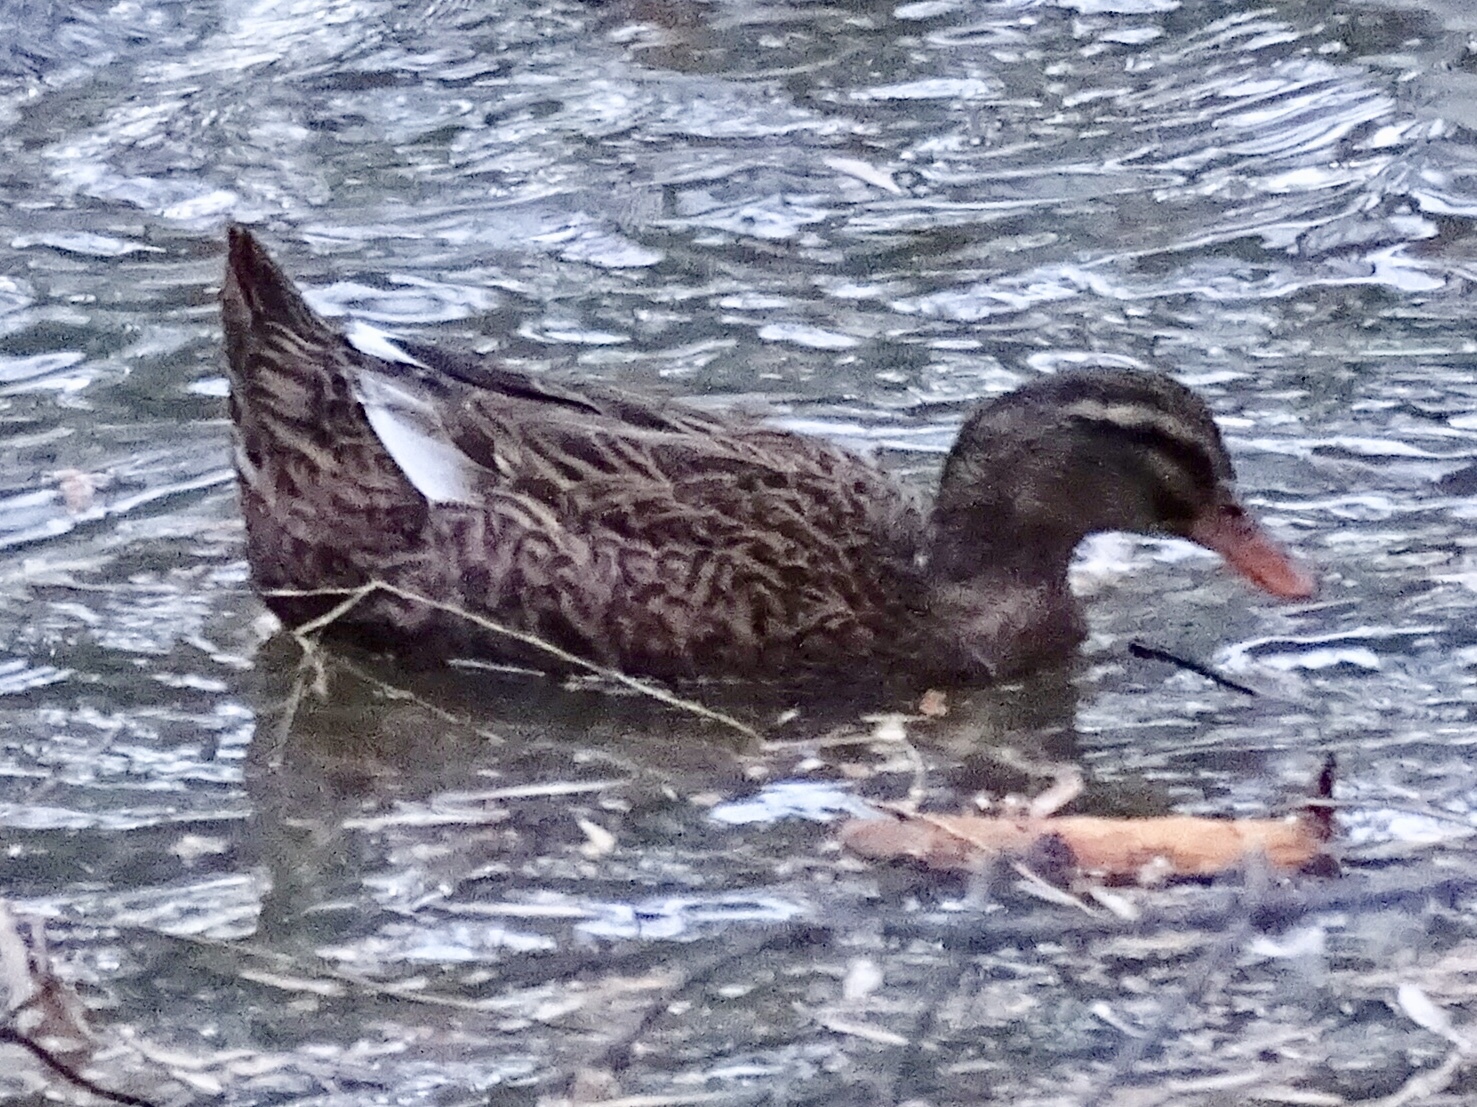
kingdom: Animalia
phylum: Chordata
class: Aves
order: Anseriformes
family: Anatidae
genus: Anas
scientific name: Anas platyrhynchos
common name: Mallard
